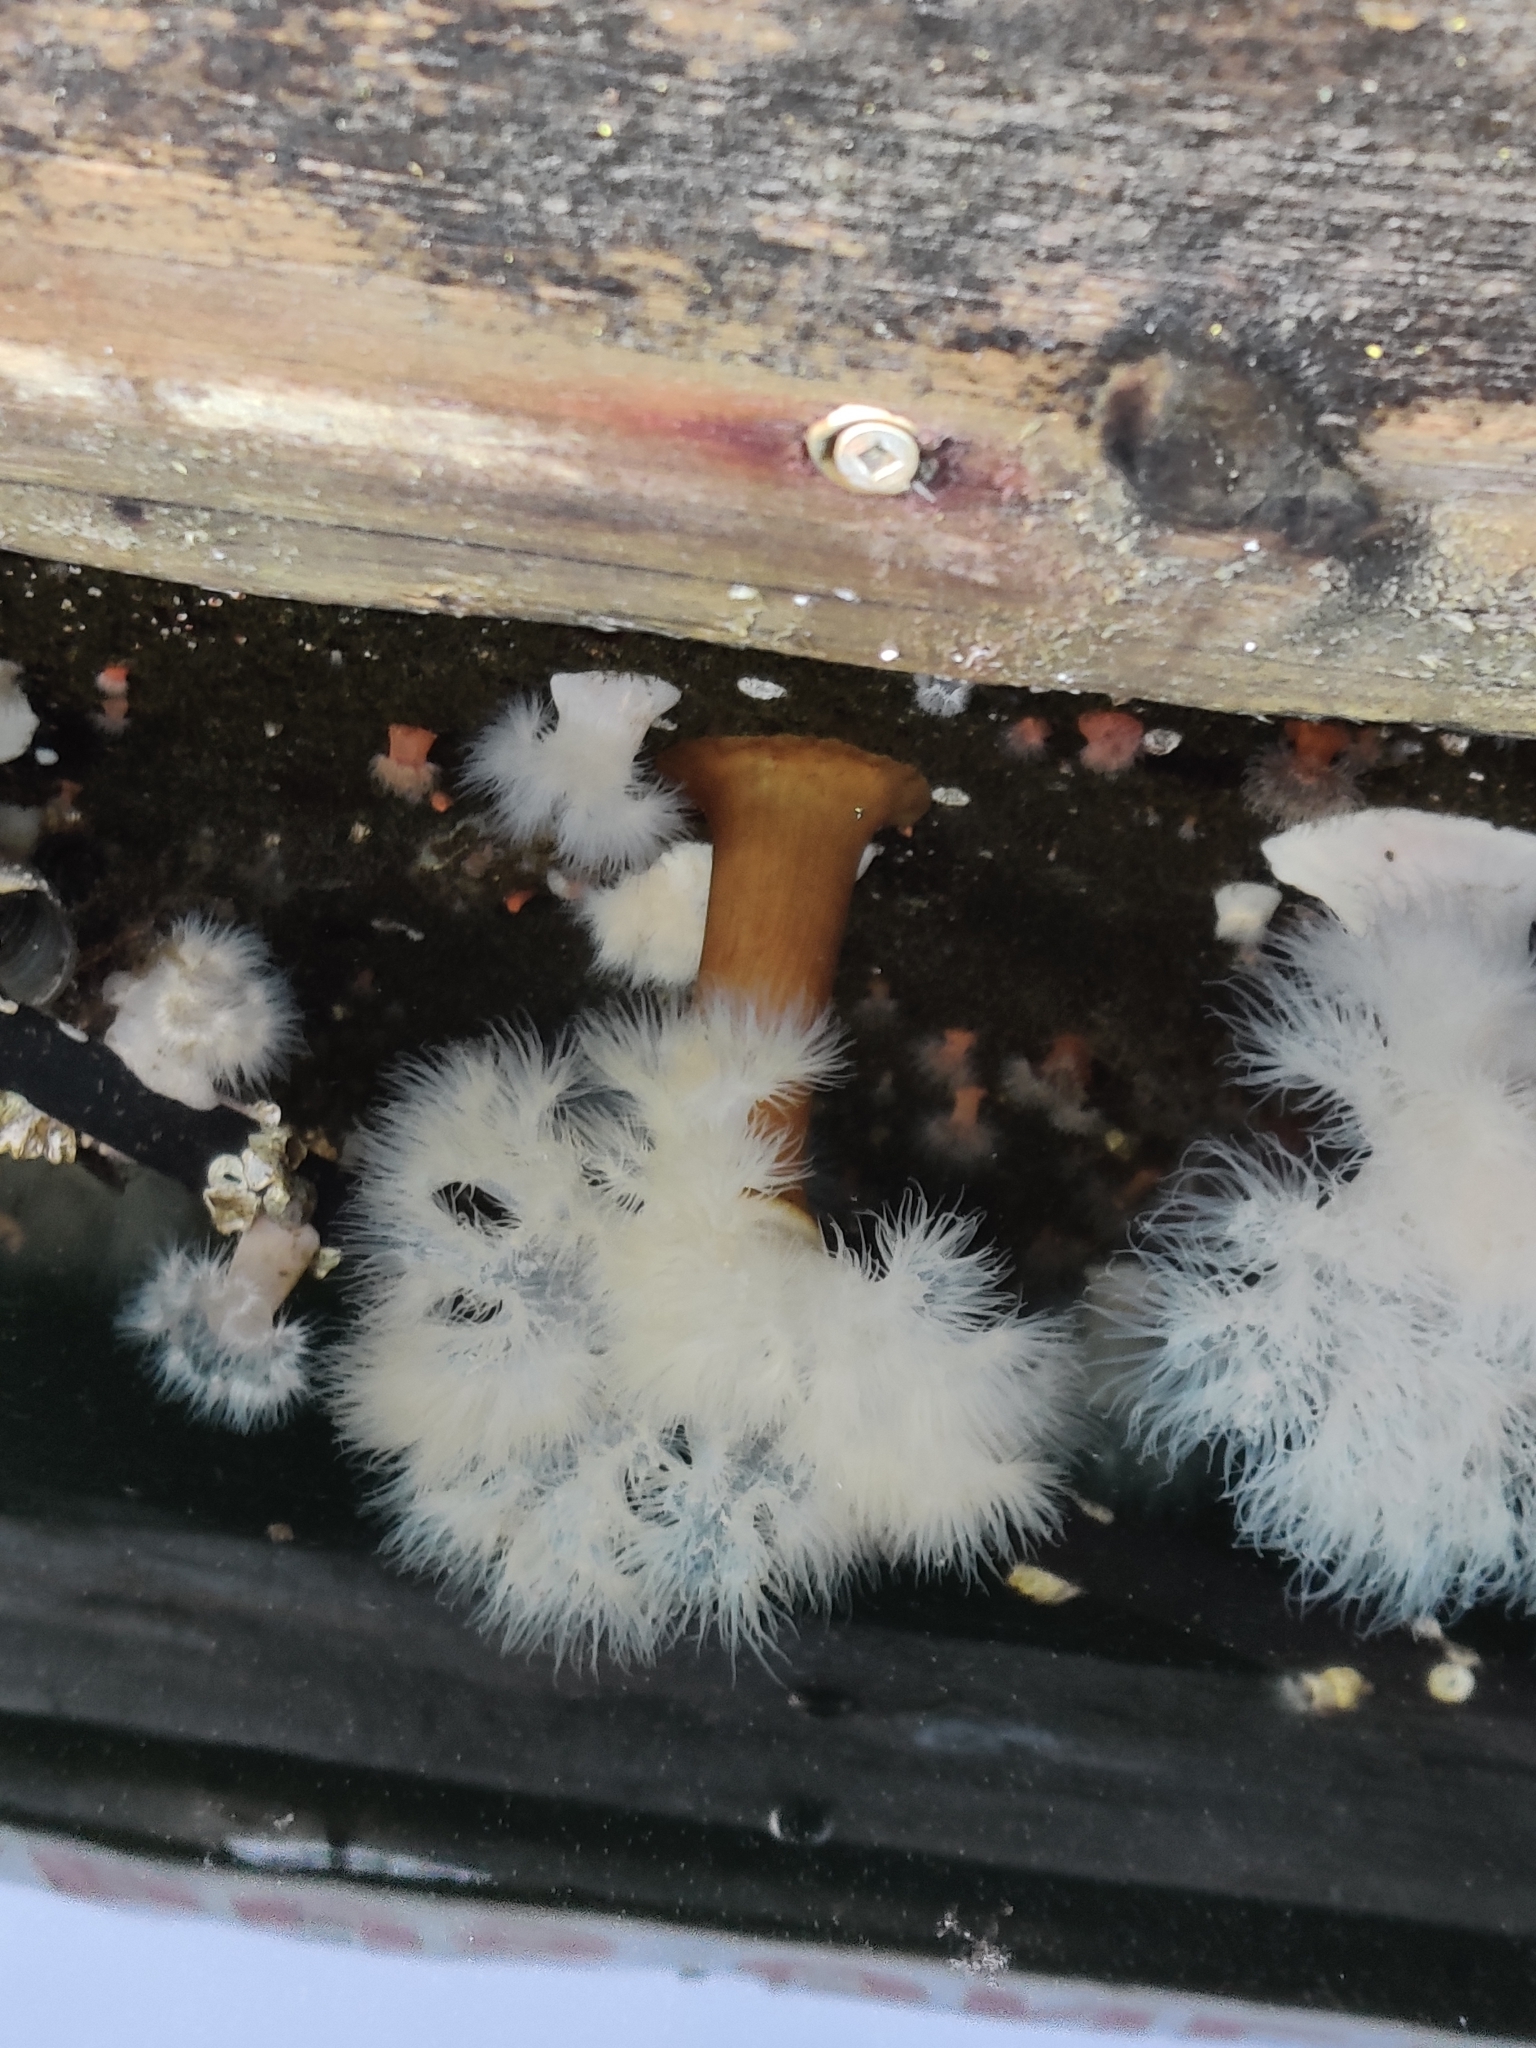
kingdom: Animalia
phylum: Cnidaria
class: Anthozoa
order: Actiniaria
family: Metridiidae
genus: Metridium
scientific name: Metridium senile
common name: Clonal plumose anemone
